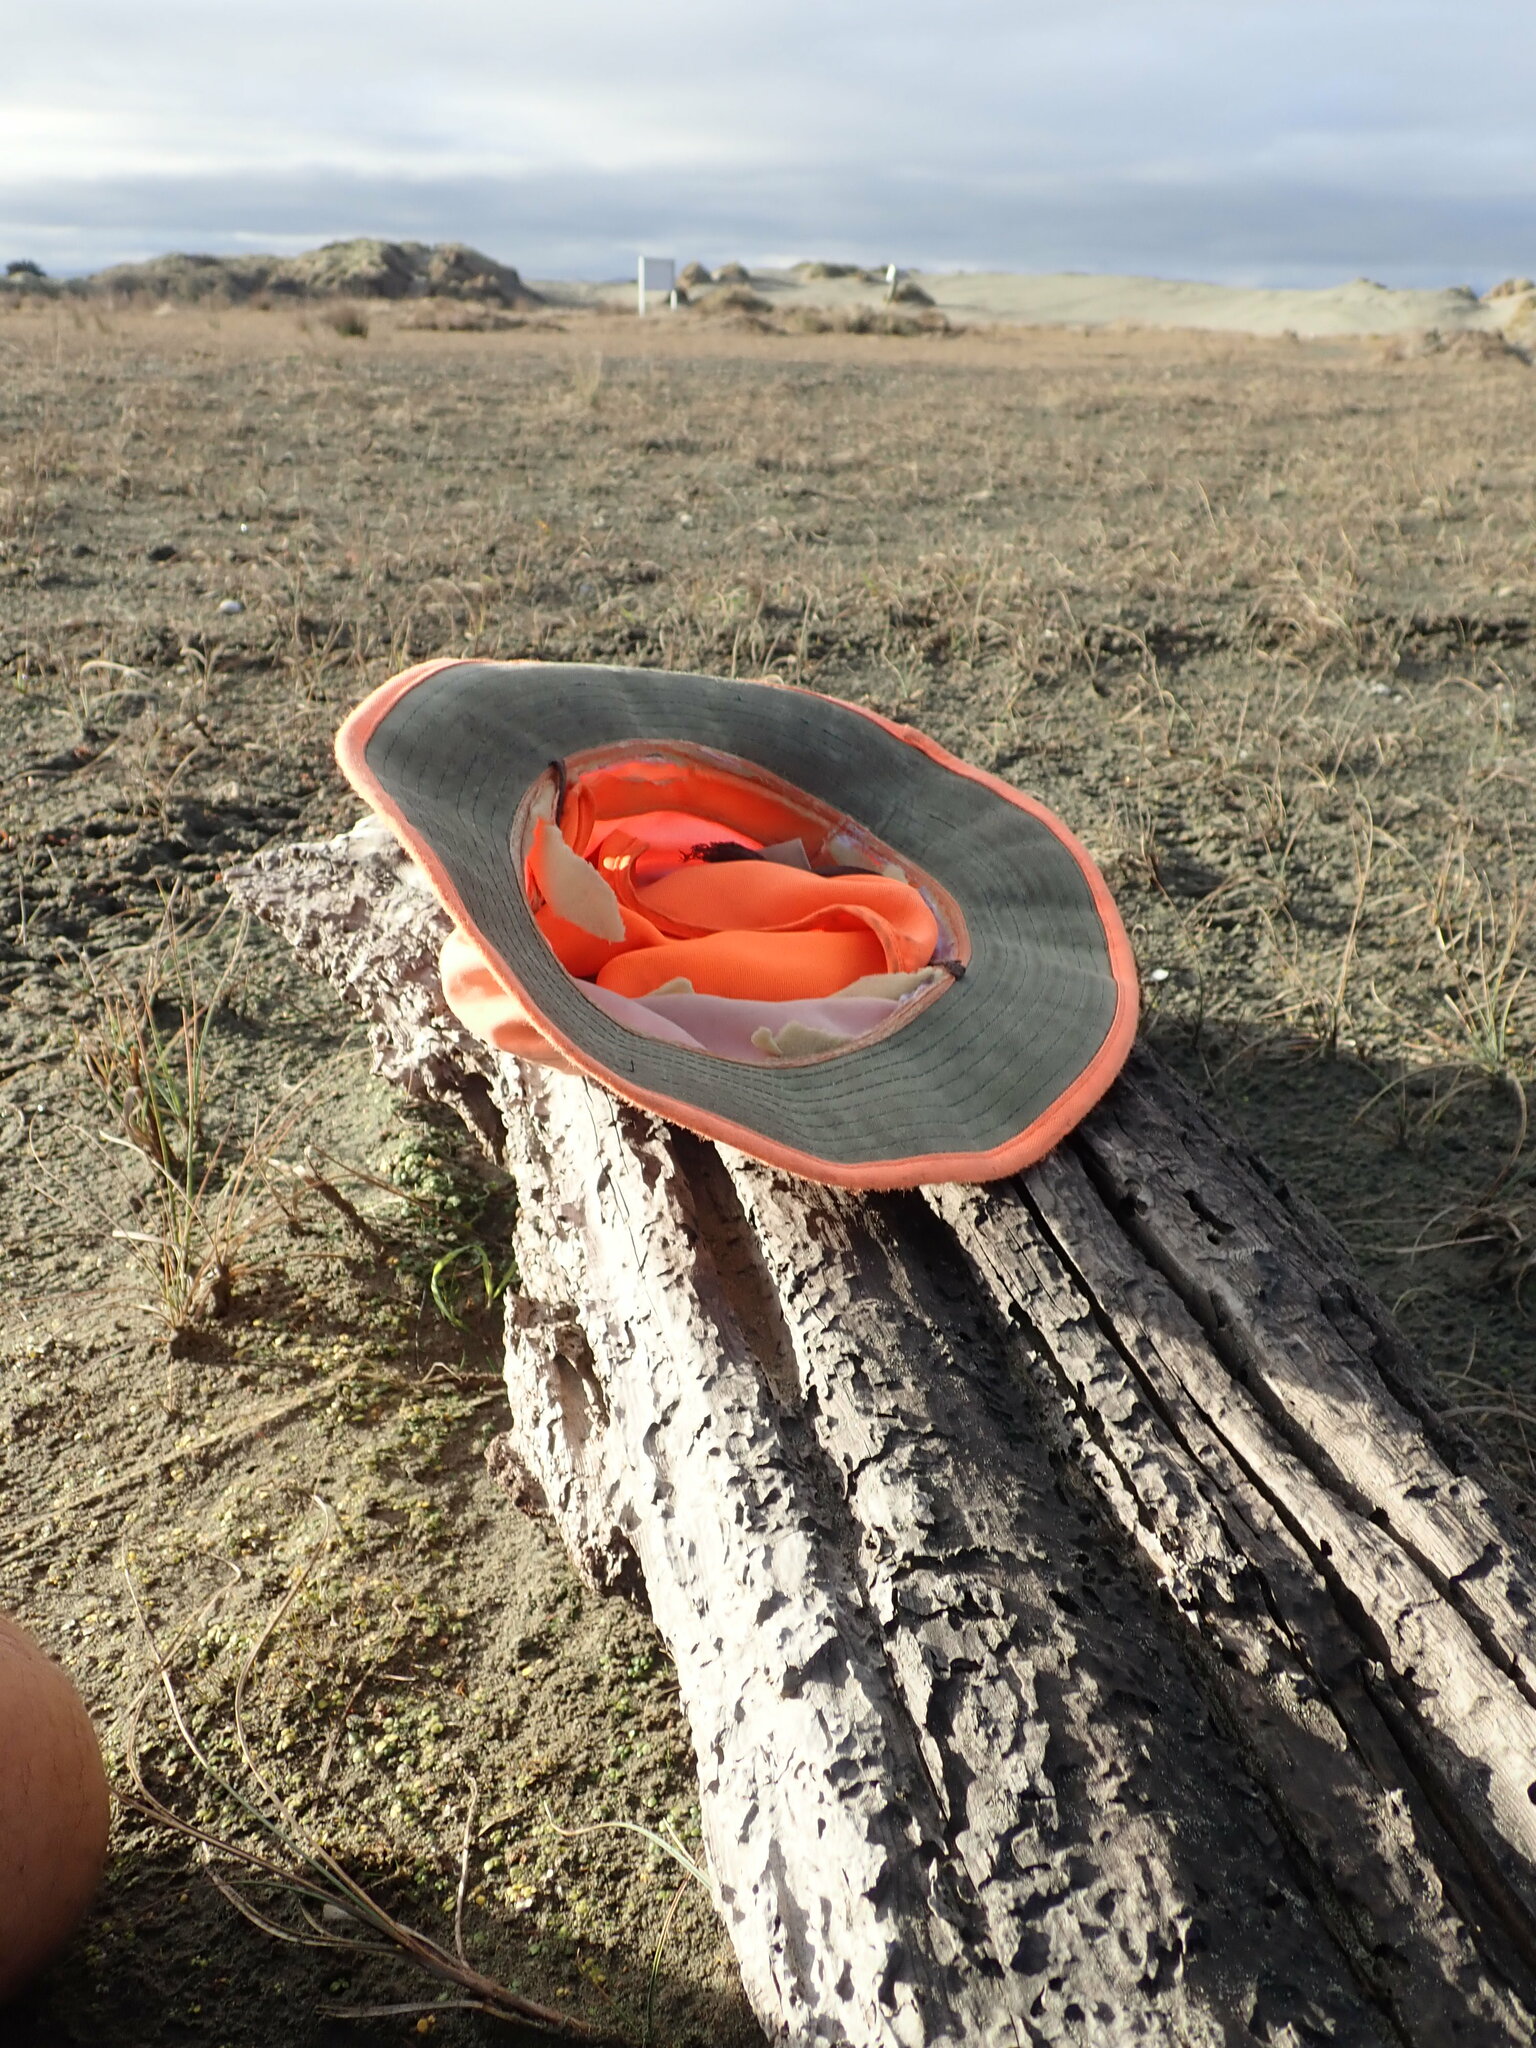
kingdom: Plantae
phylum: Tracheophyta
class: Magnoliopsida
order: Ranunculales
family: Ranunculaceae
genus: Ranunculus
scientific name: Ranunculus acaulis
